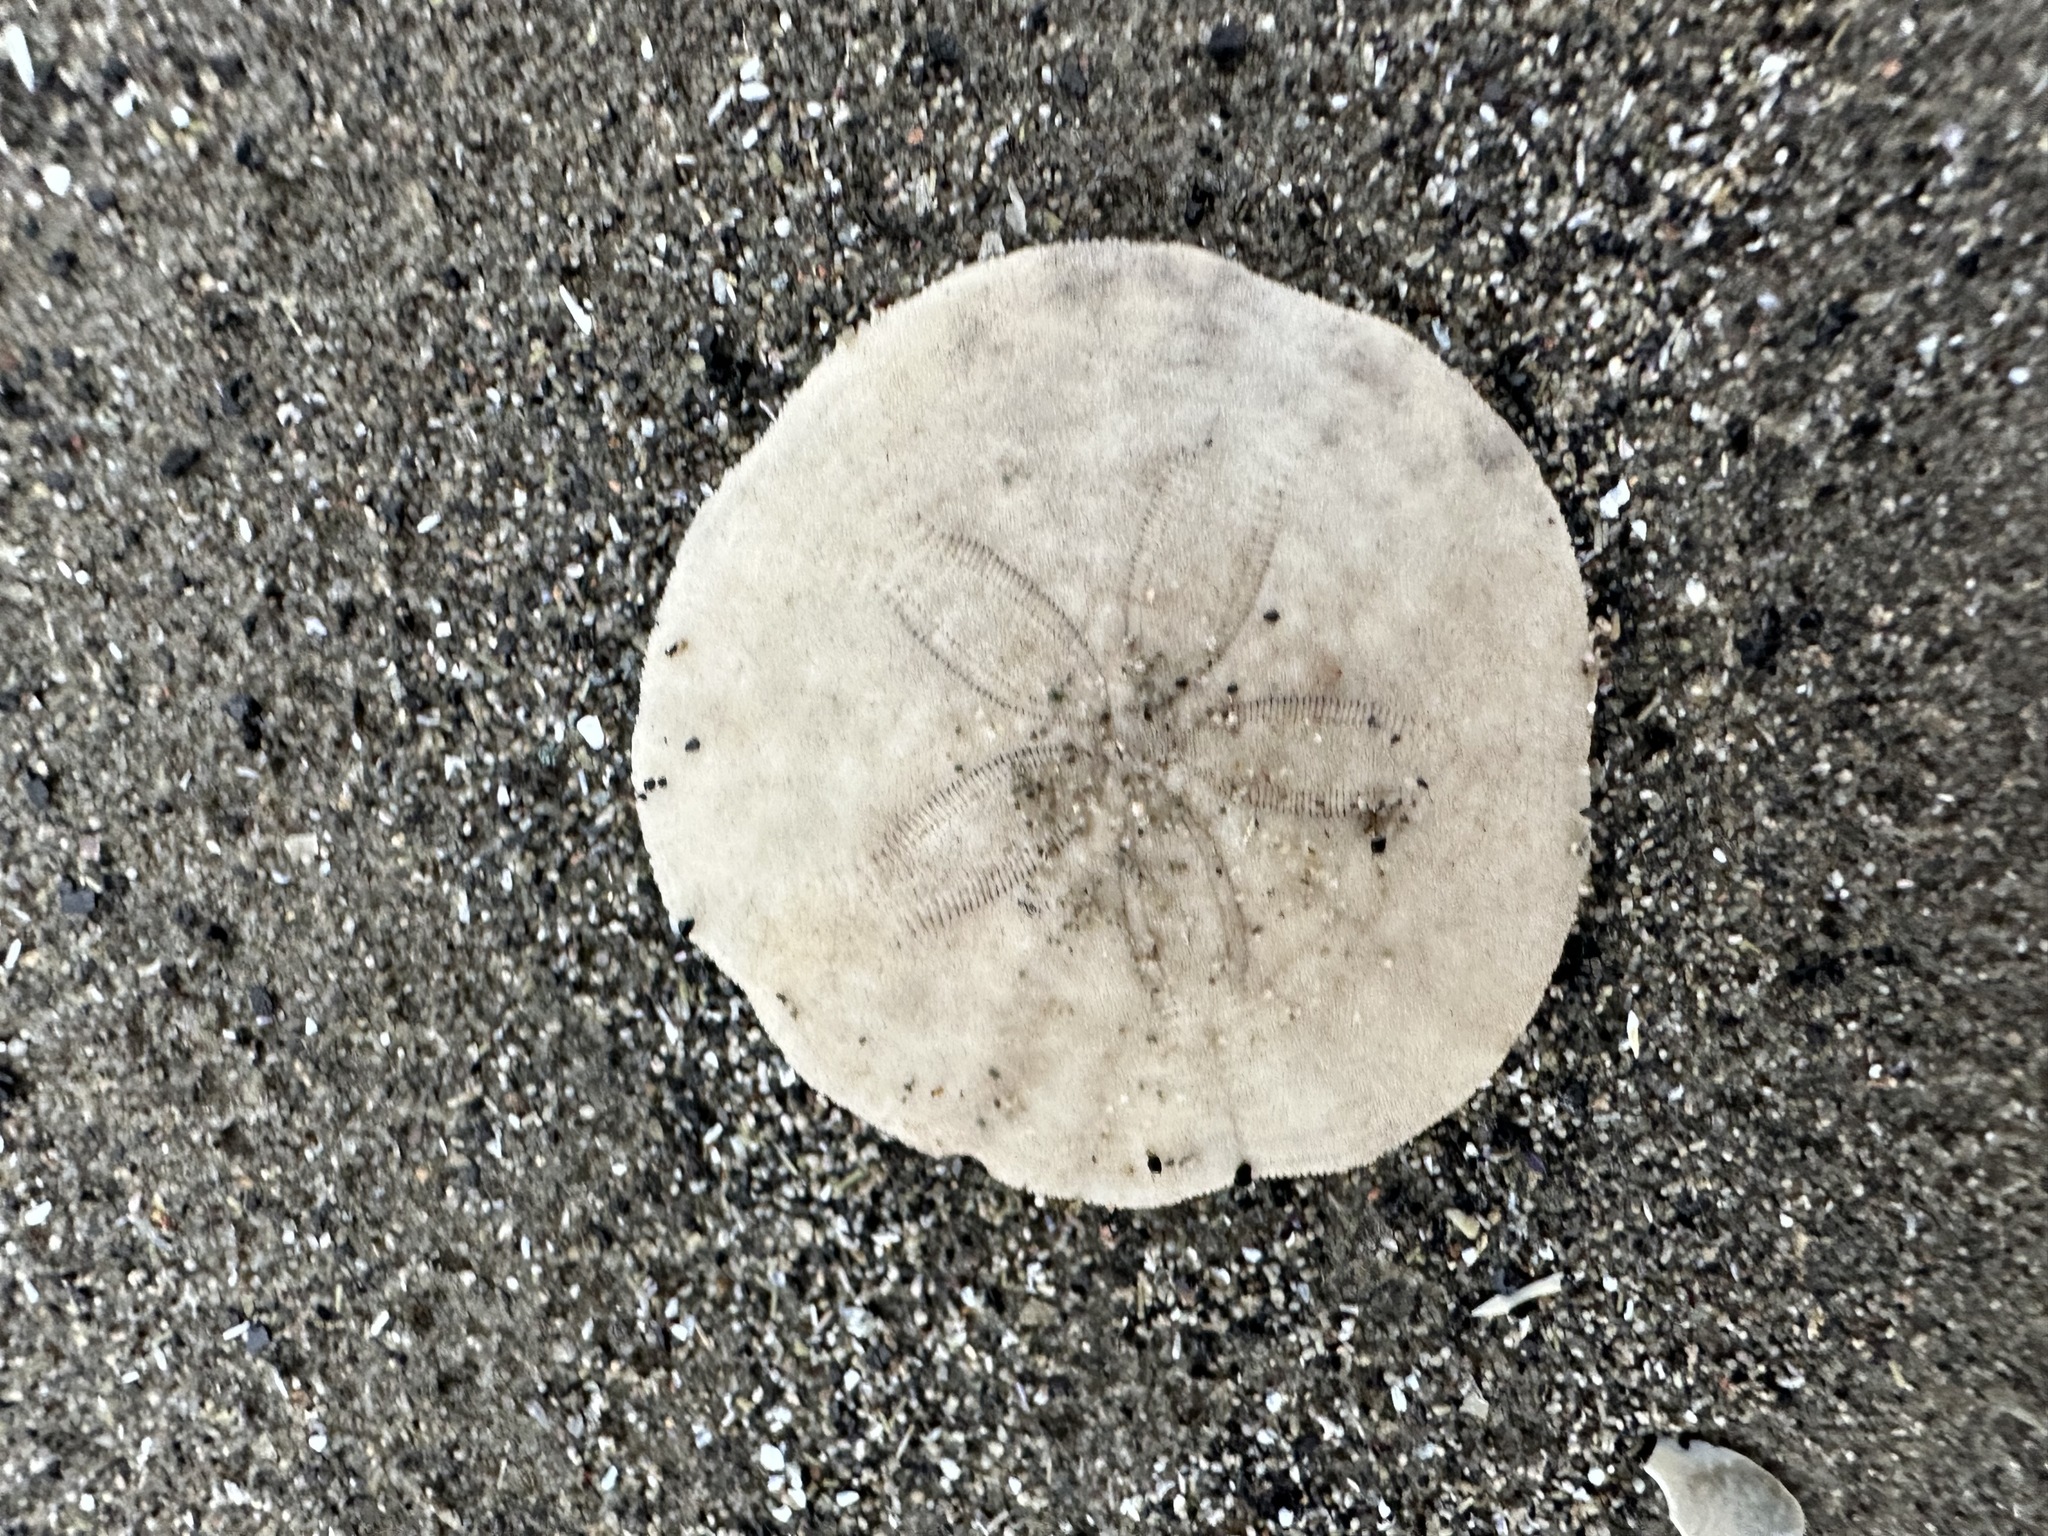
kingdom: Animalia
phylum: Echinodermata
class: Echinoidea
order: Echinolampadacea
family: Echinarachniidae
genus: Echinarachnius
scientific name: Echinarachnius parma
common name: Common sand dollar
